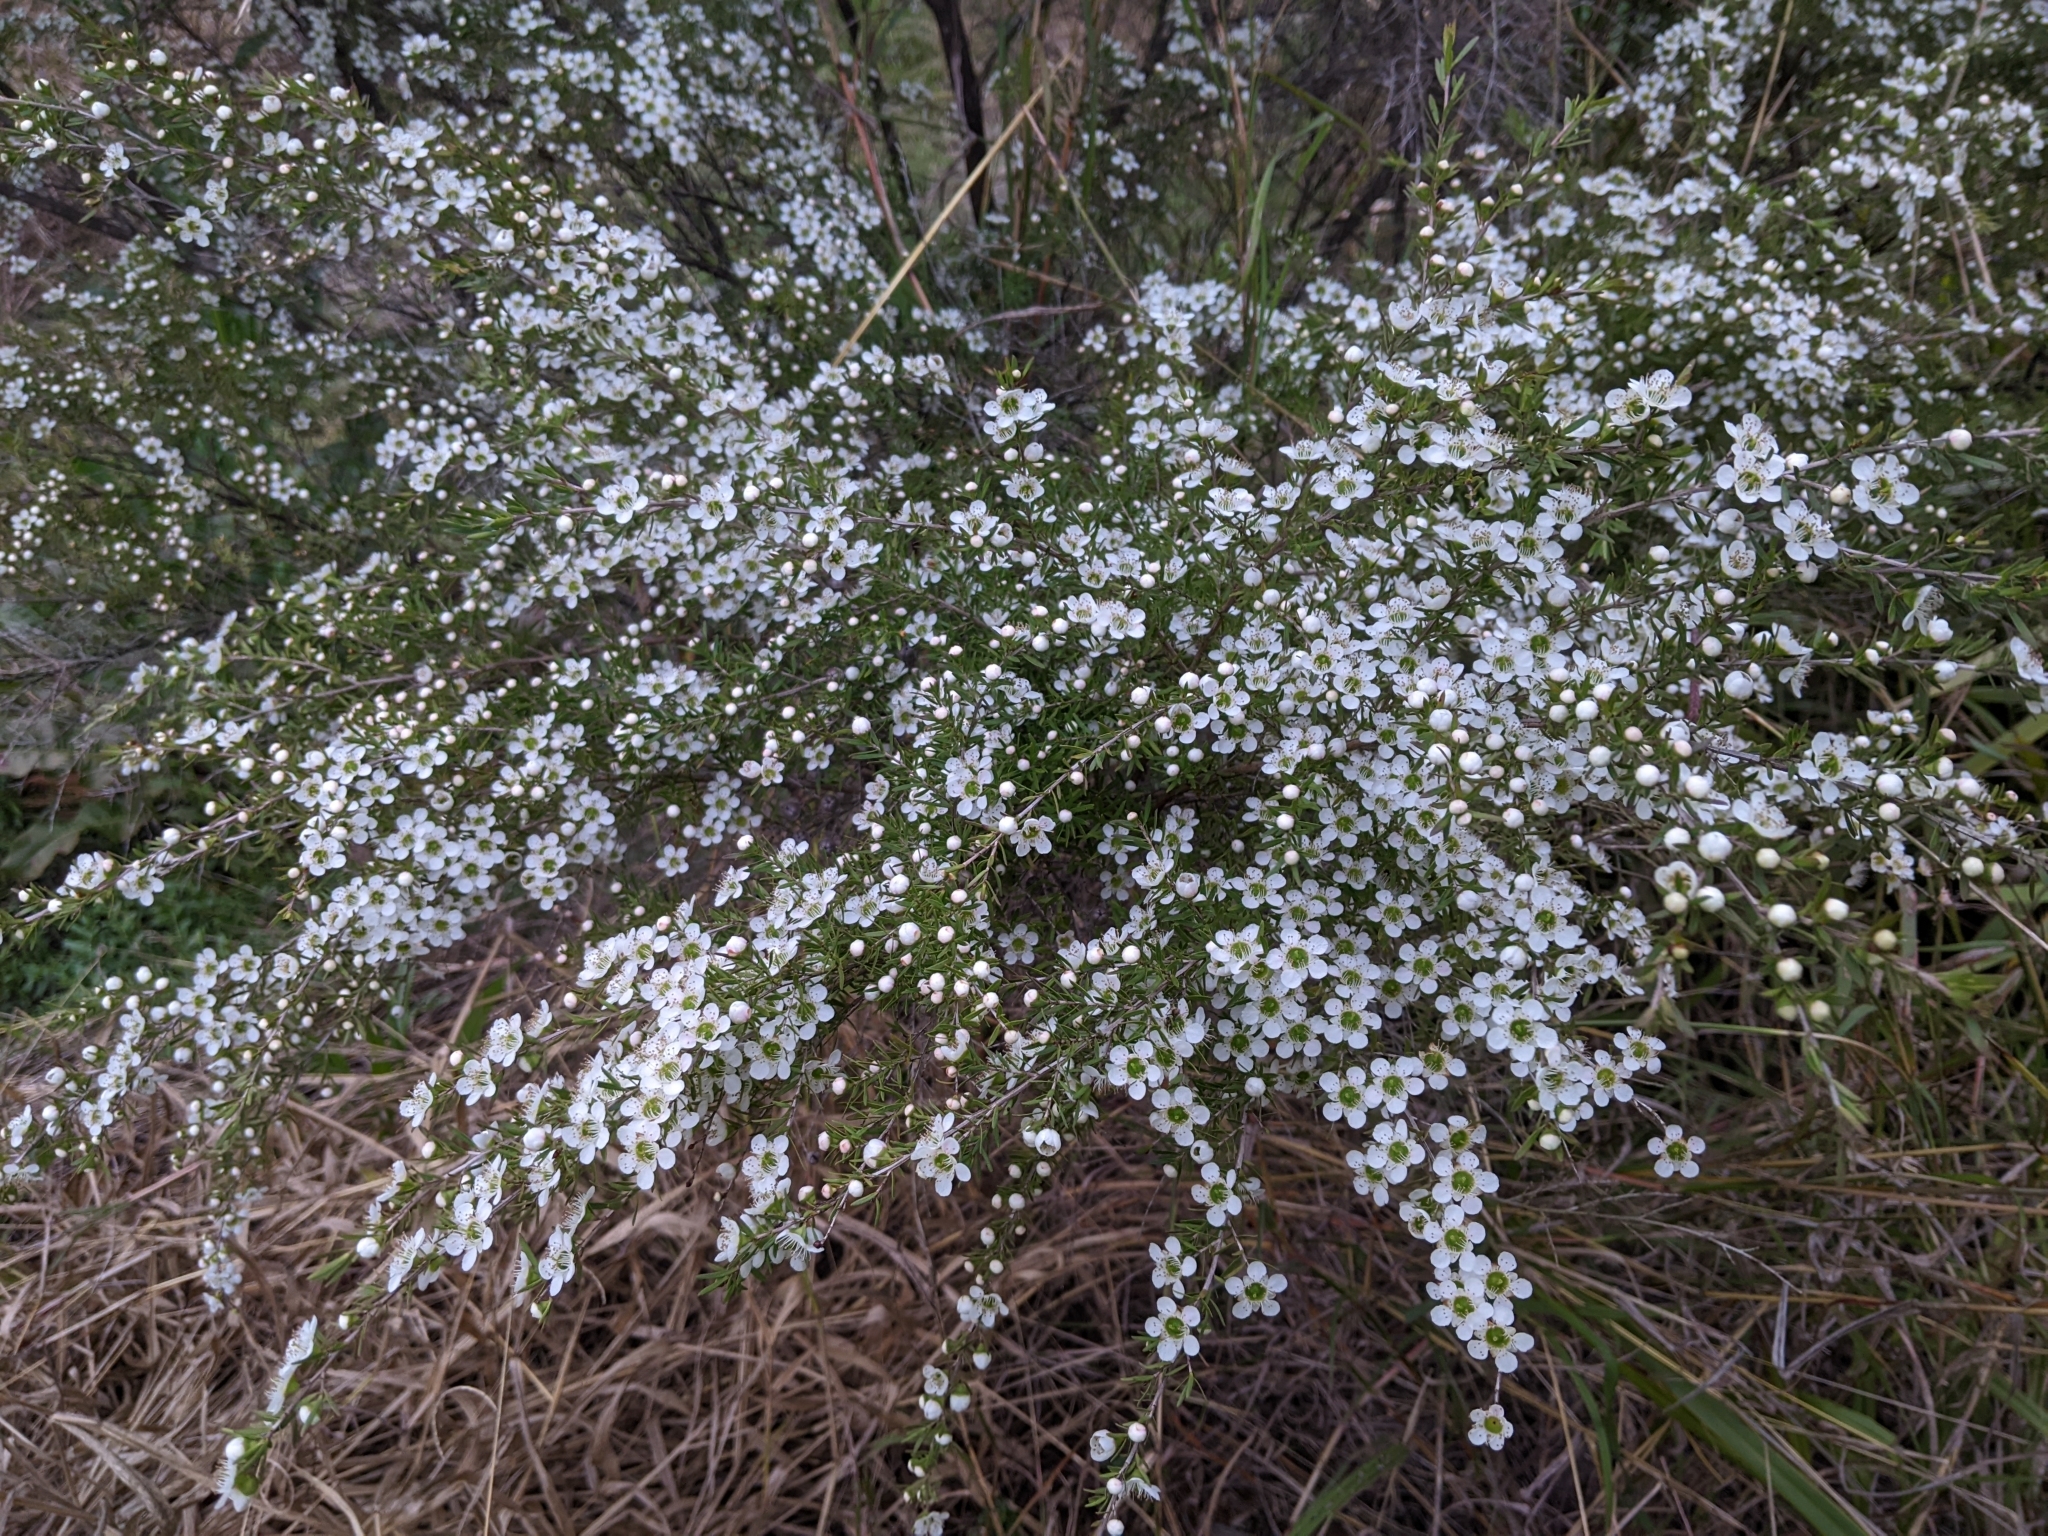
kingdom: Plantae
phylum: Tracheophyta
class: Magnoliopsida
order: Myrtales
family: Myrtaceae
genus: Leptospermum
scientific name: Leptospermum polygalifolium
